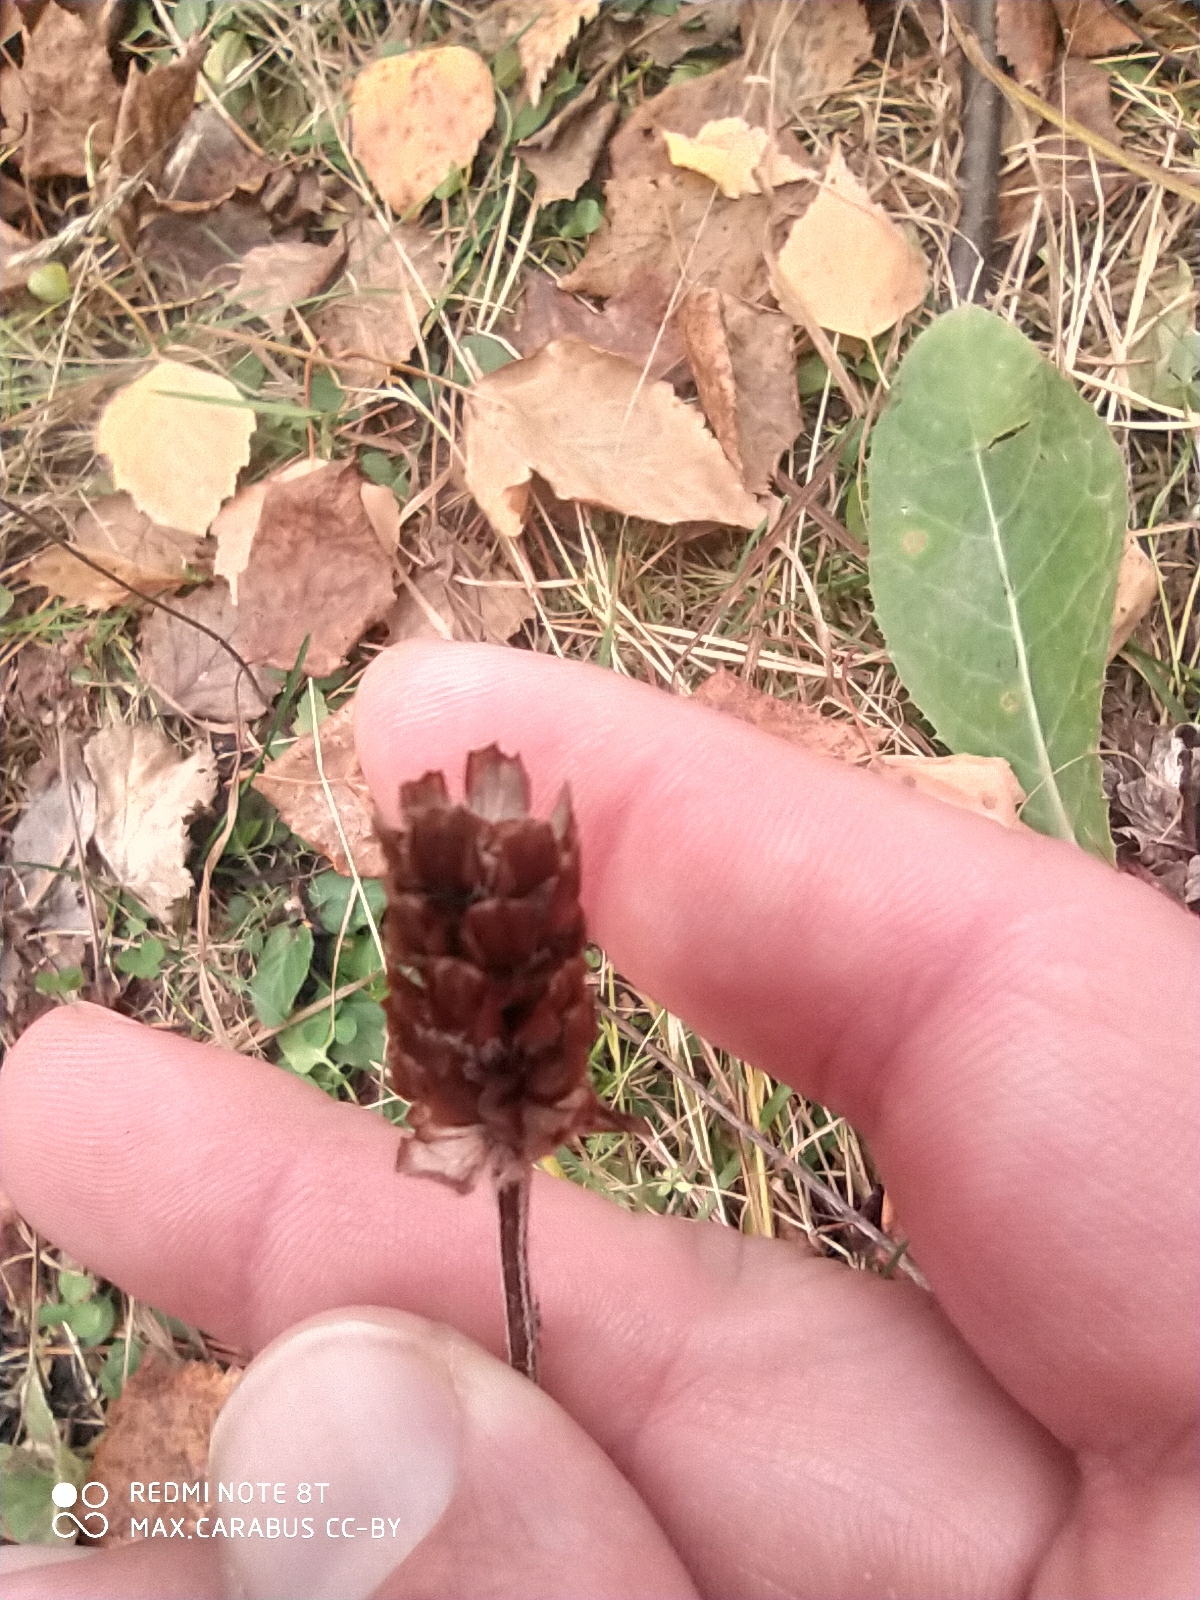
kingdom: Plantae
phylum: Tracheophyta
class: Magnoliopsida
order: Lamiales
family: Lamiaceae
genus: Prunella
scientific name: Prunella vulgaris
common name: Heal-all
